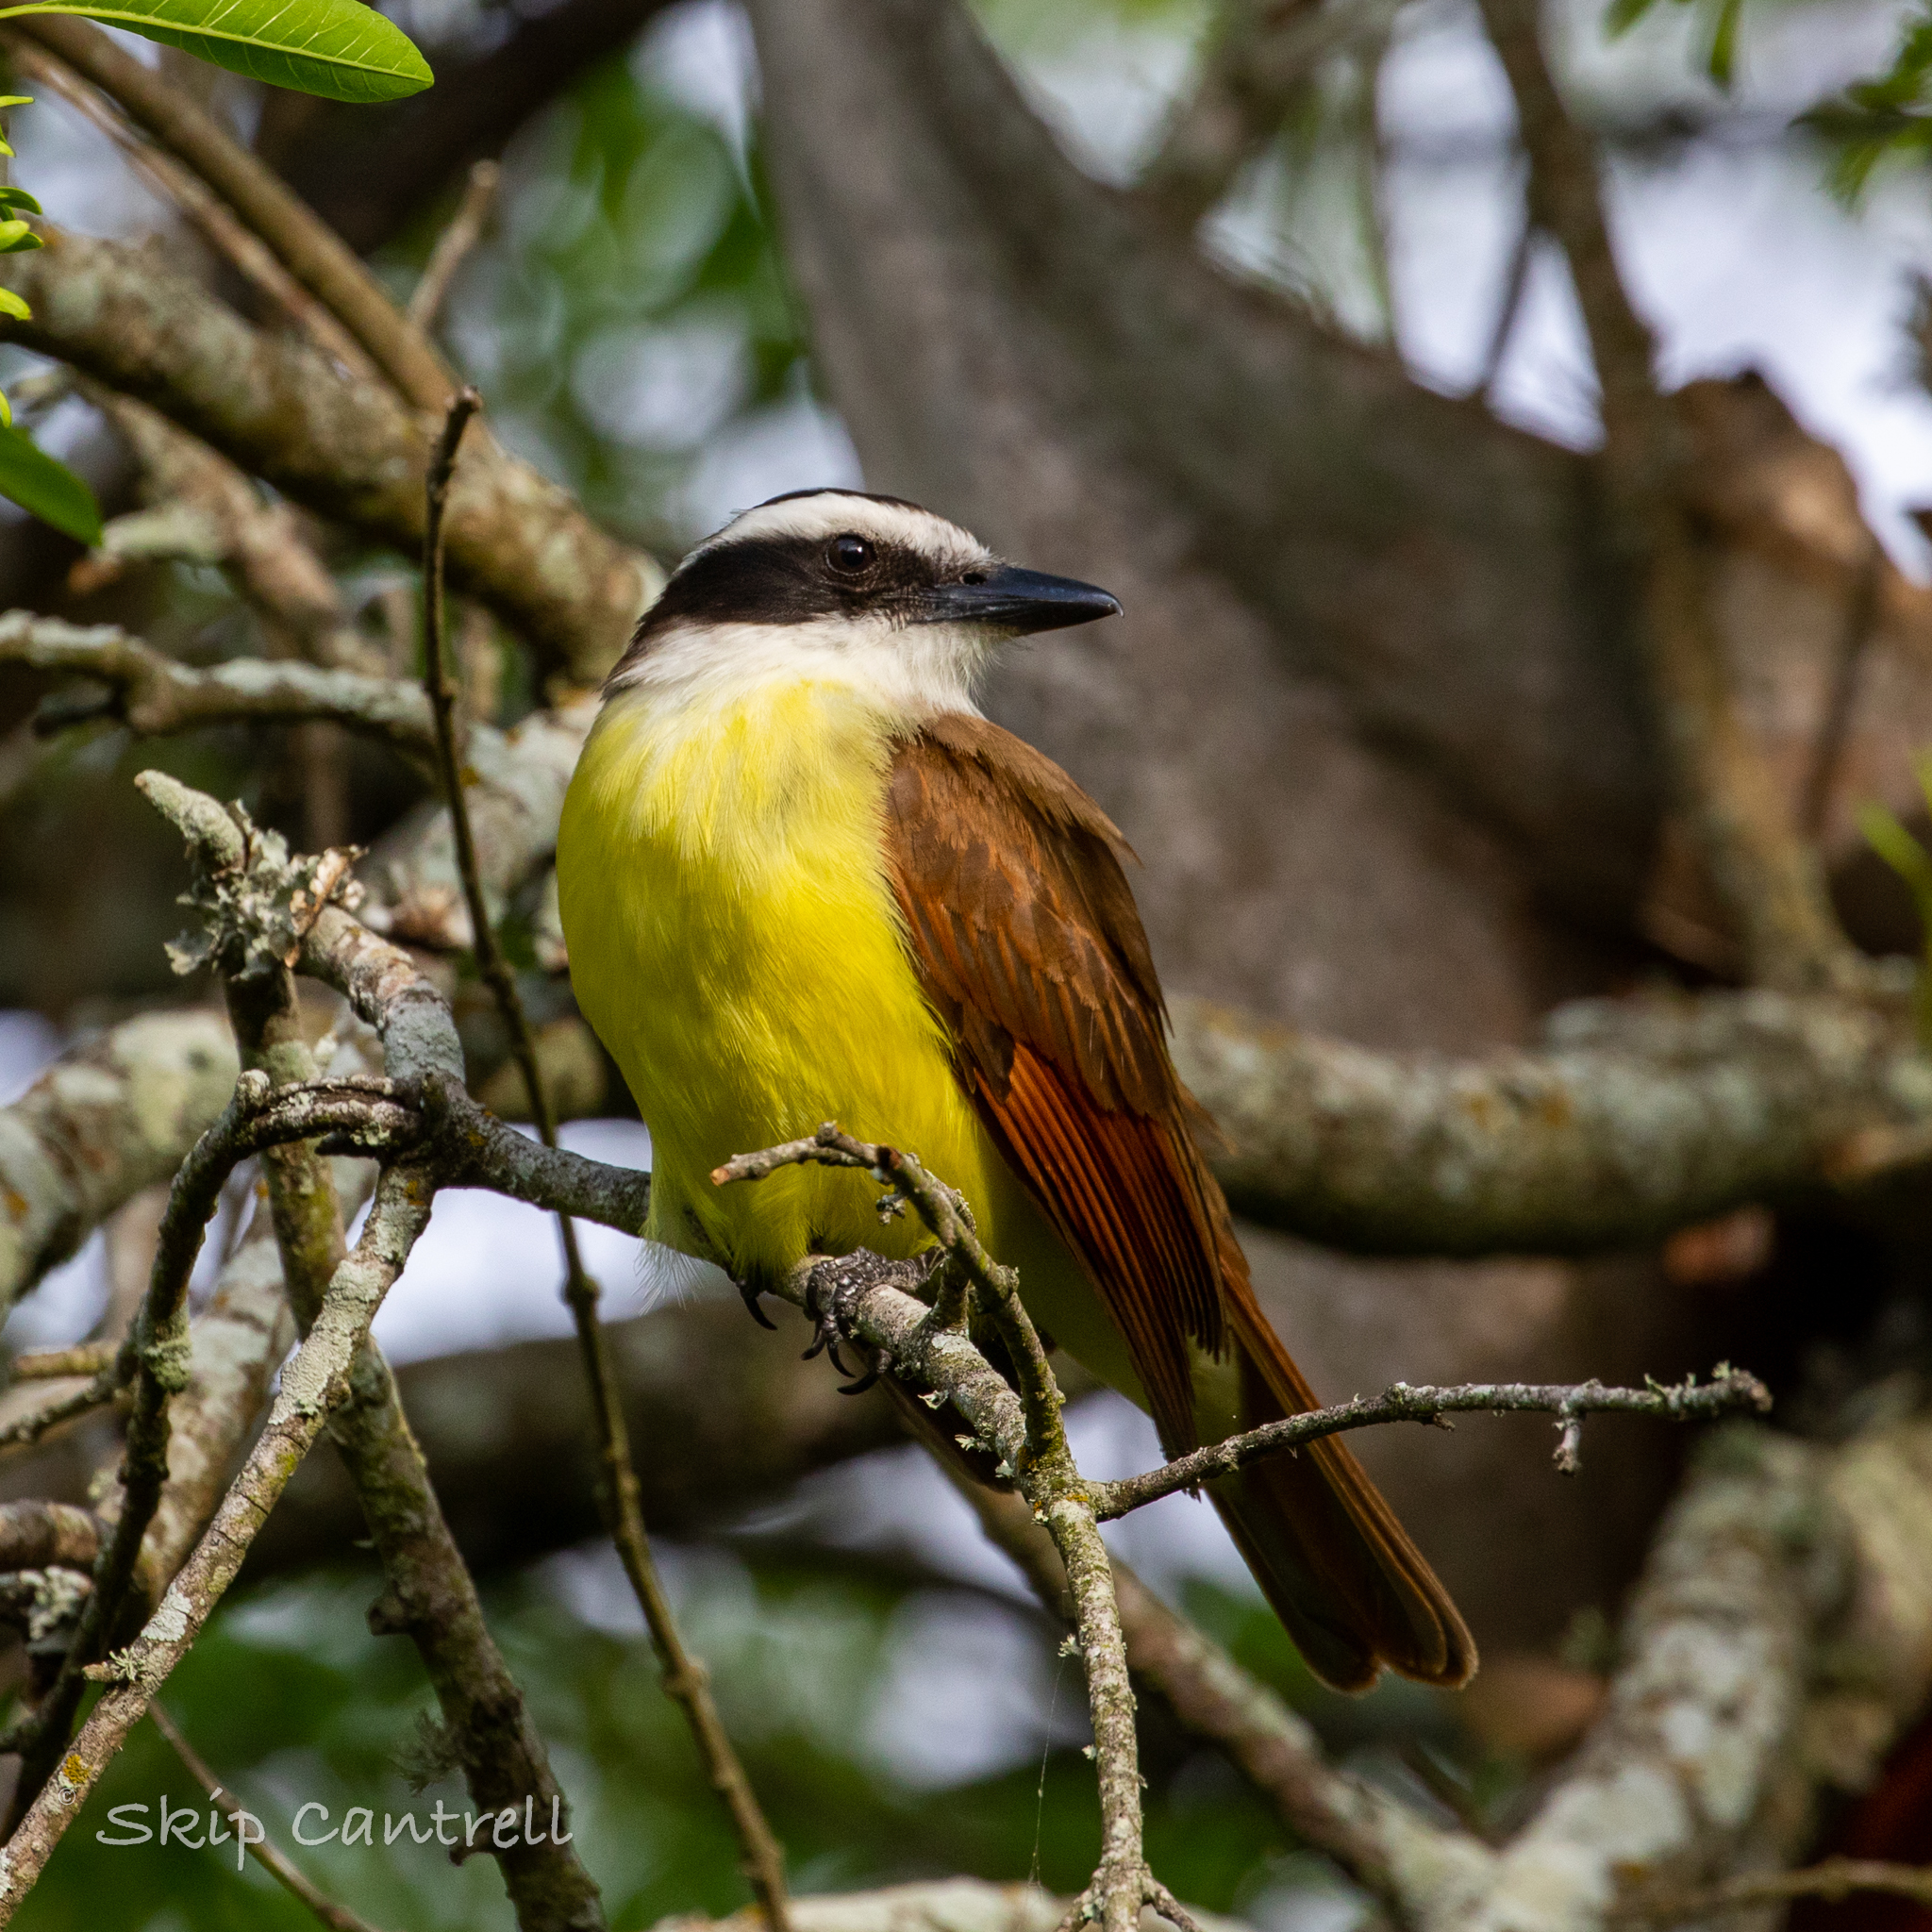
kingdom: Animalia
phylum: Chordata
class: Aves
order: Passeriformes
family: Tyrannidae
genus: Pitangus
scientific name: Pitangus sulphuratus
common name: Great kiskadee
